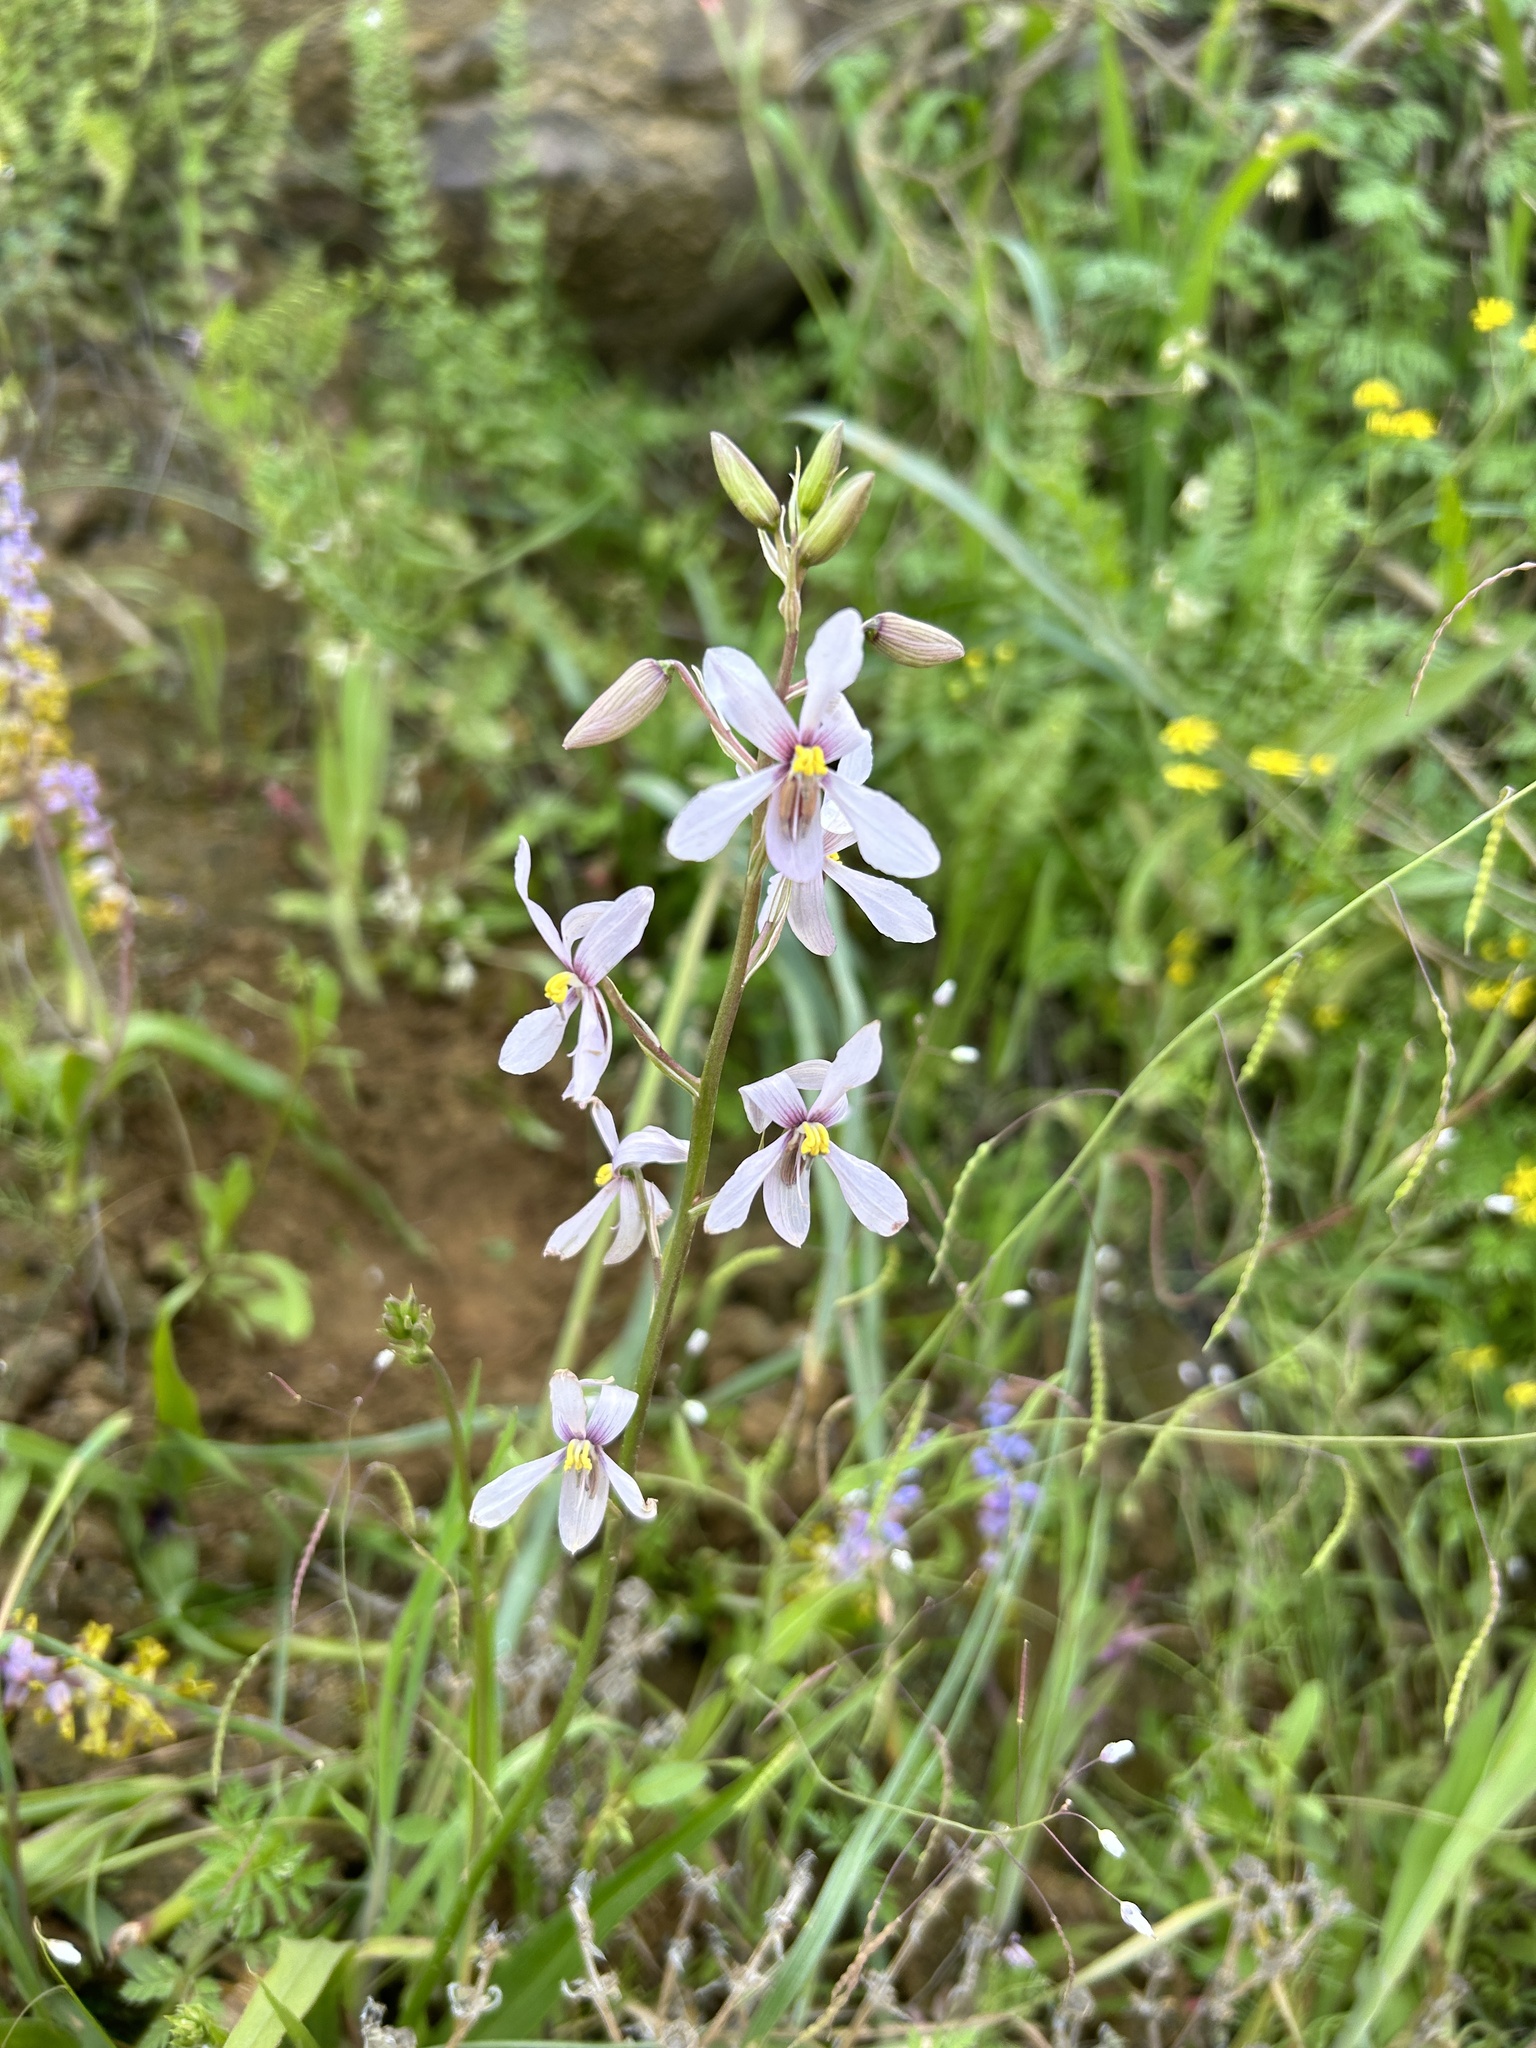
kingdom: Plantae
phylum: Tracheophyta
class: Liliopsida
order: Asparagales
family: Tecophilaeaceae
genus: Cyanella
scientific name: Cyanella orchidiformis
